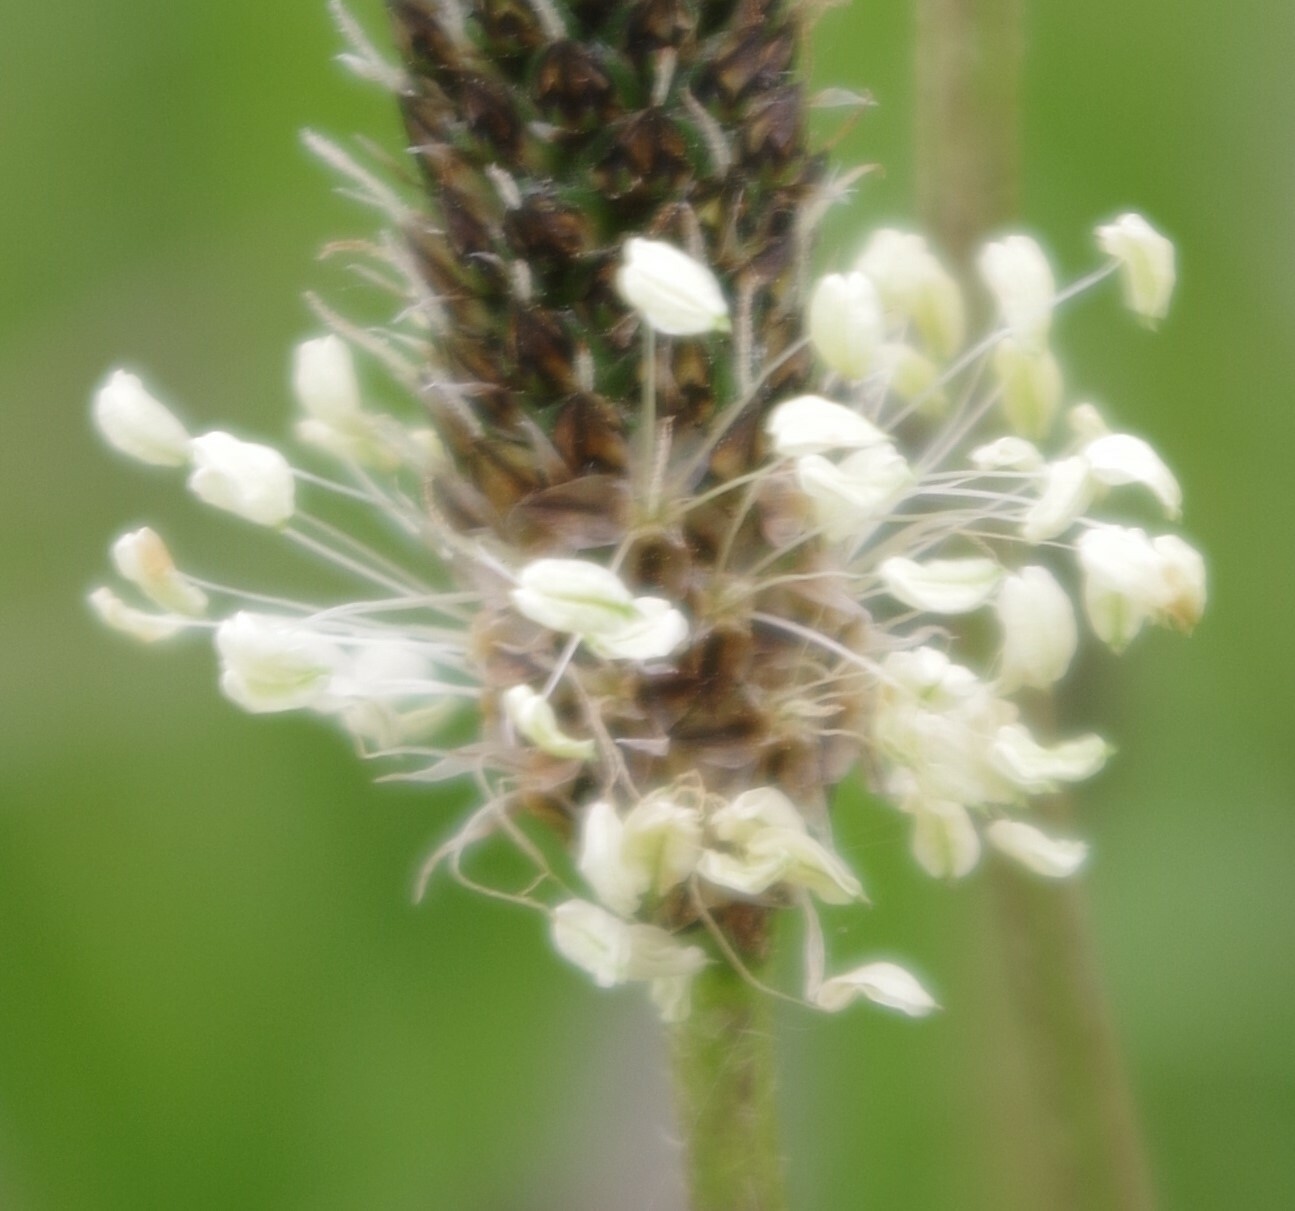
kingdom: Plantae
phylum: Tracheophyta
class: Magnoliopsida
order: Lamiales
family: Plantaginaceae
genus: Plantago
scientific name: Plantago lanceolata
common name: Ribwort plantain
